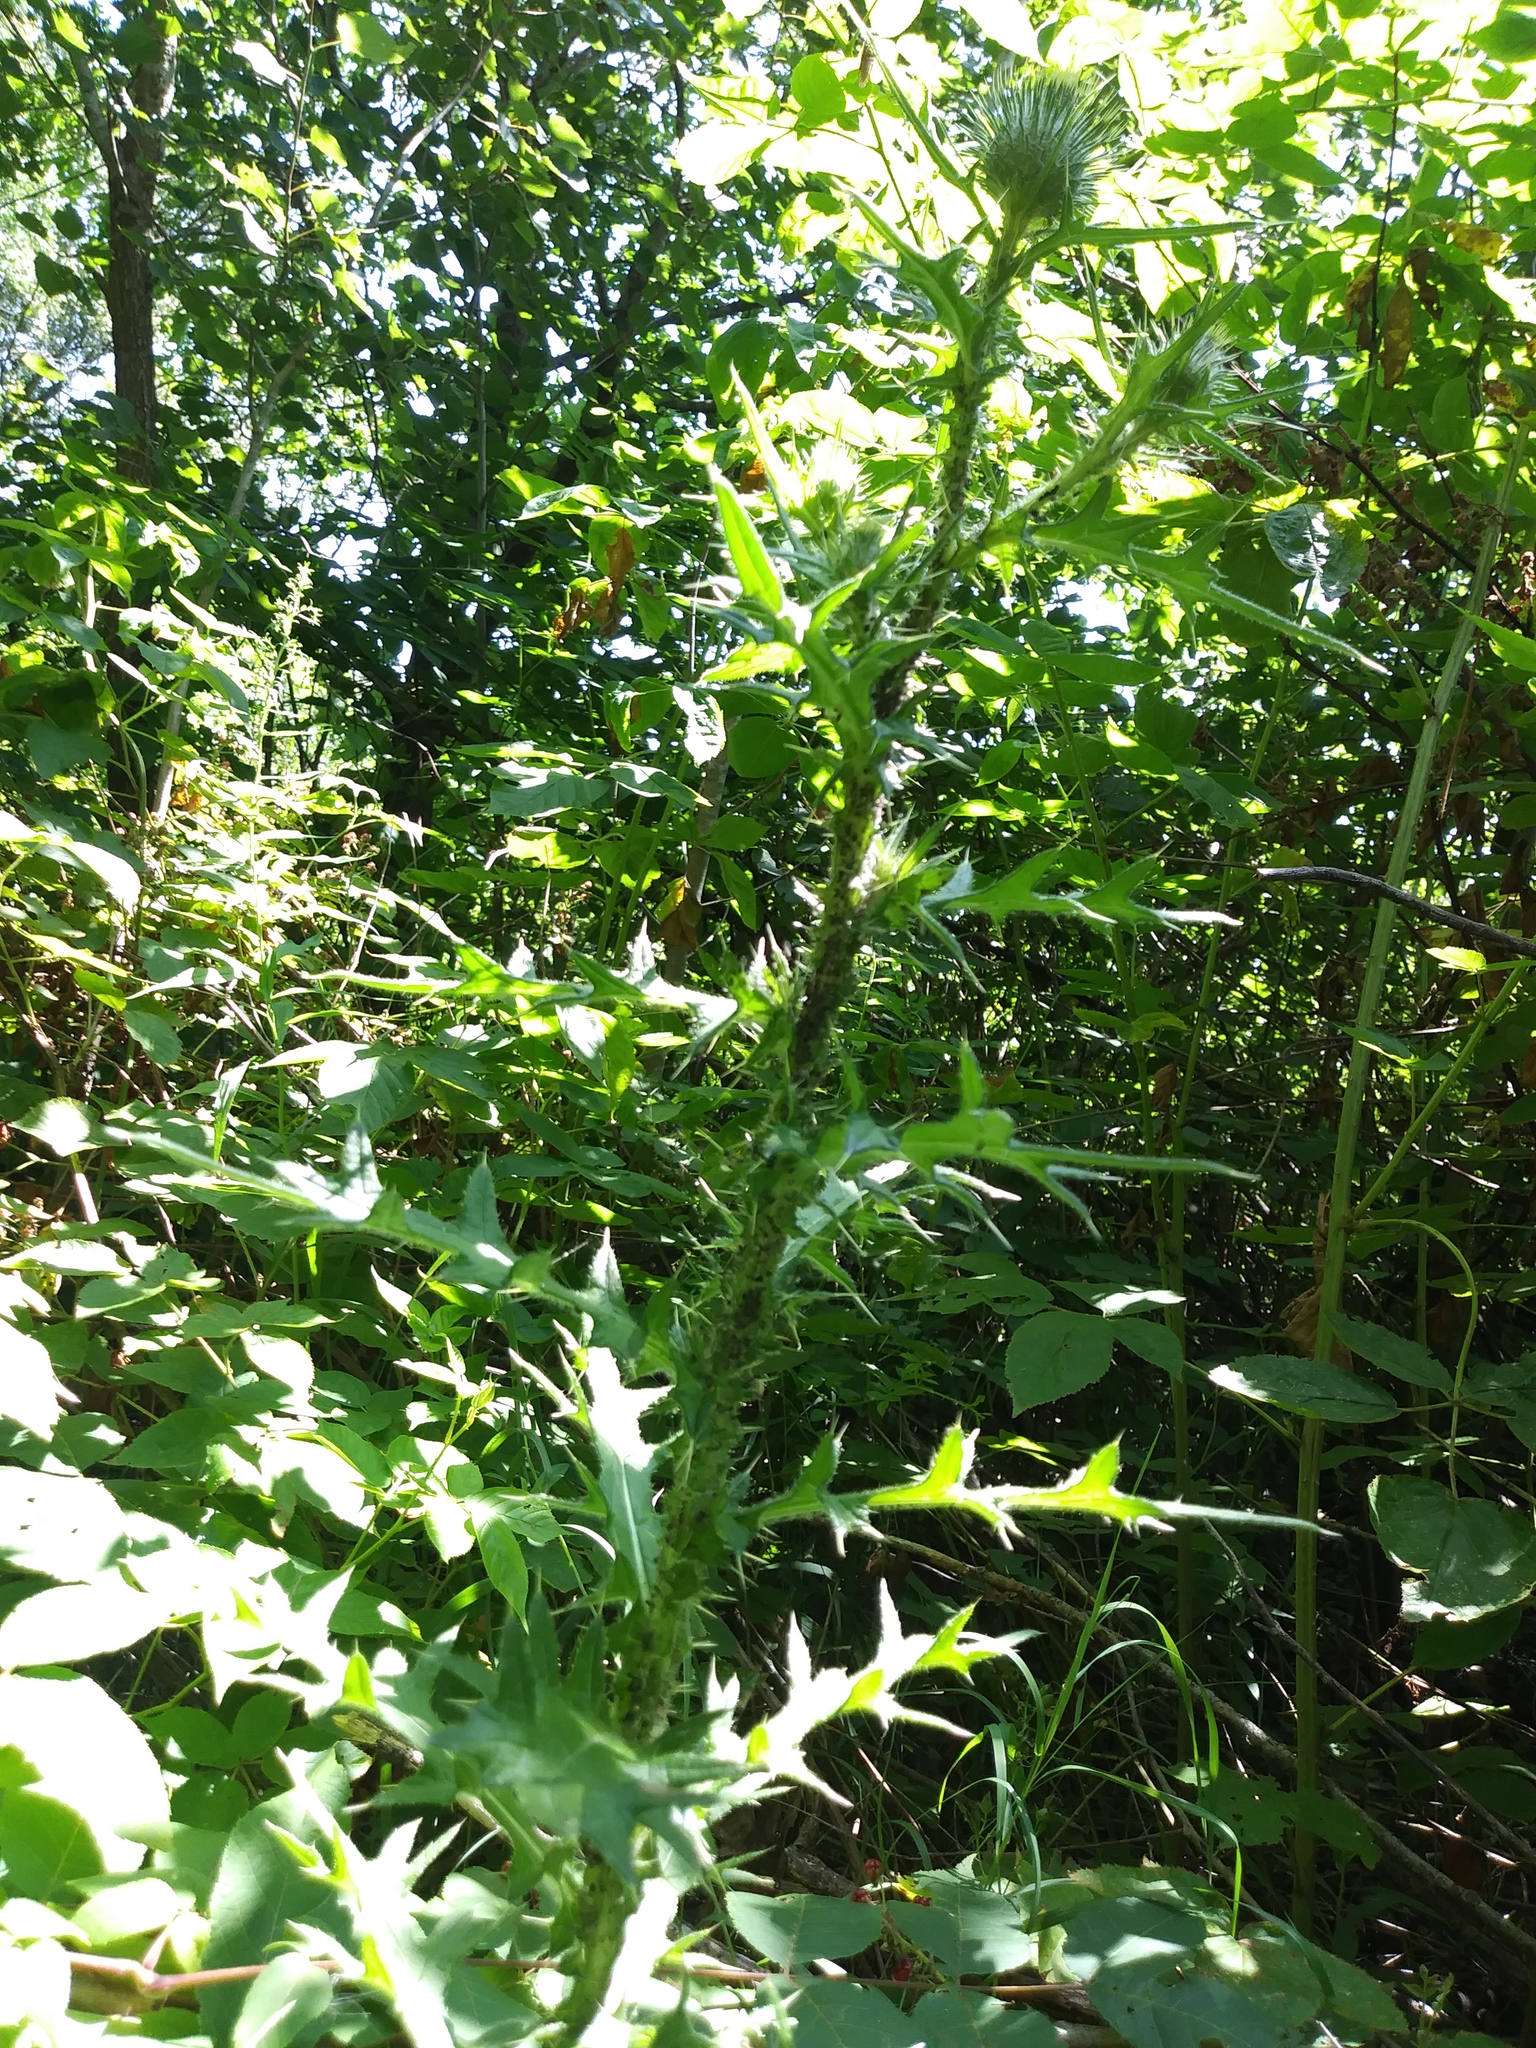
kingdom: Plantae
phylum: Tracheophyta
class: Magnoliopsida
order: Asterales
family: Asteraceae
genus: Cirsium
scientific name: Cirsium vulgare
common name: Bull thistle
